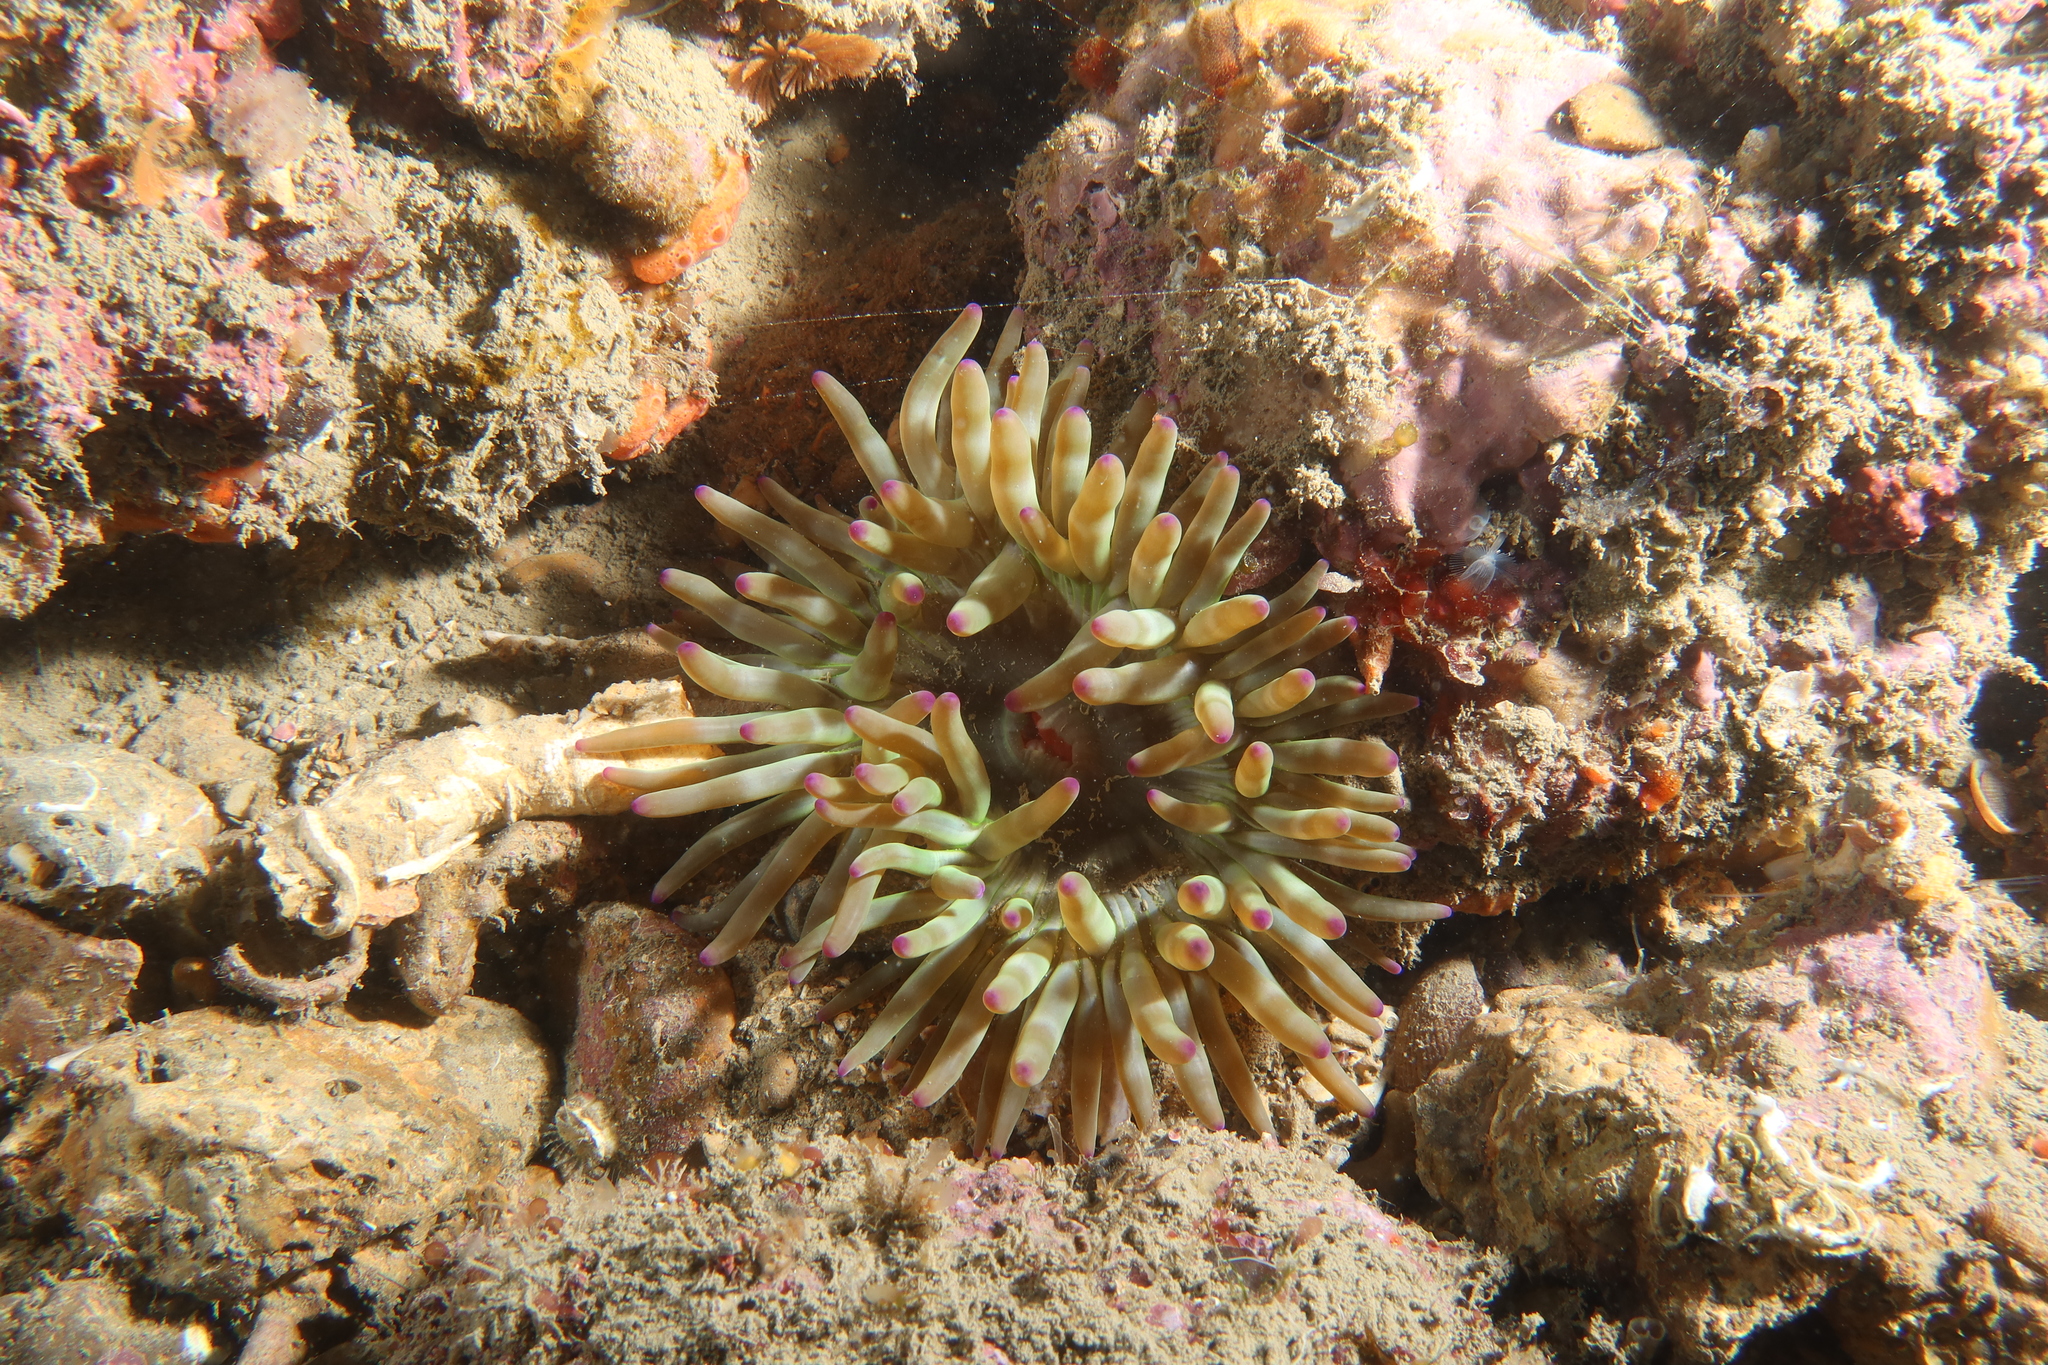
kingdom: Animalia
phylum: Cnidaria
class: Anthozoa
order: Actiniaria
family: Actiniidae
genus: Cribrinopsis
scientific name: Cribrinopsis crassa
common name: Fat anemone
